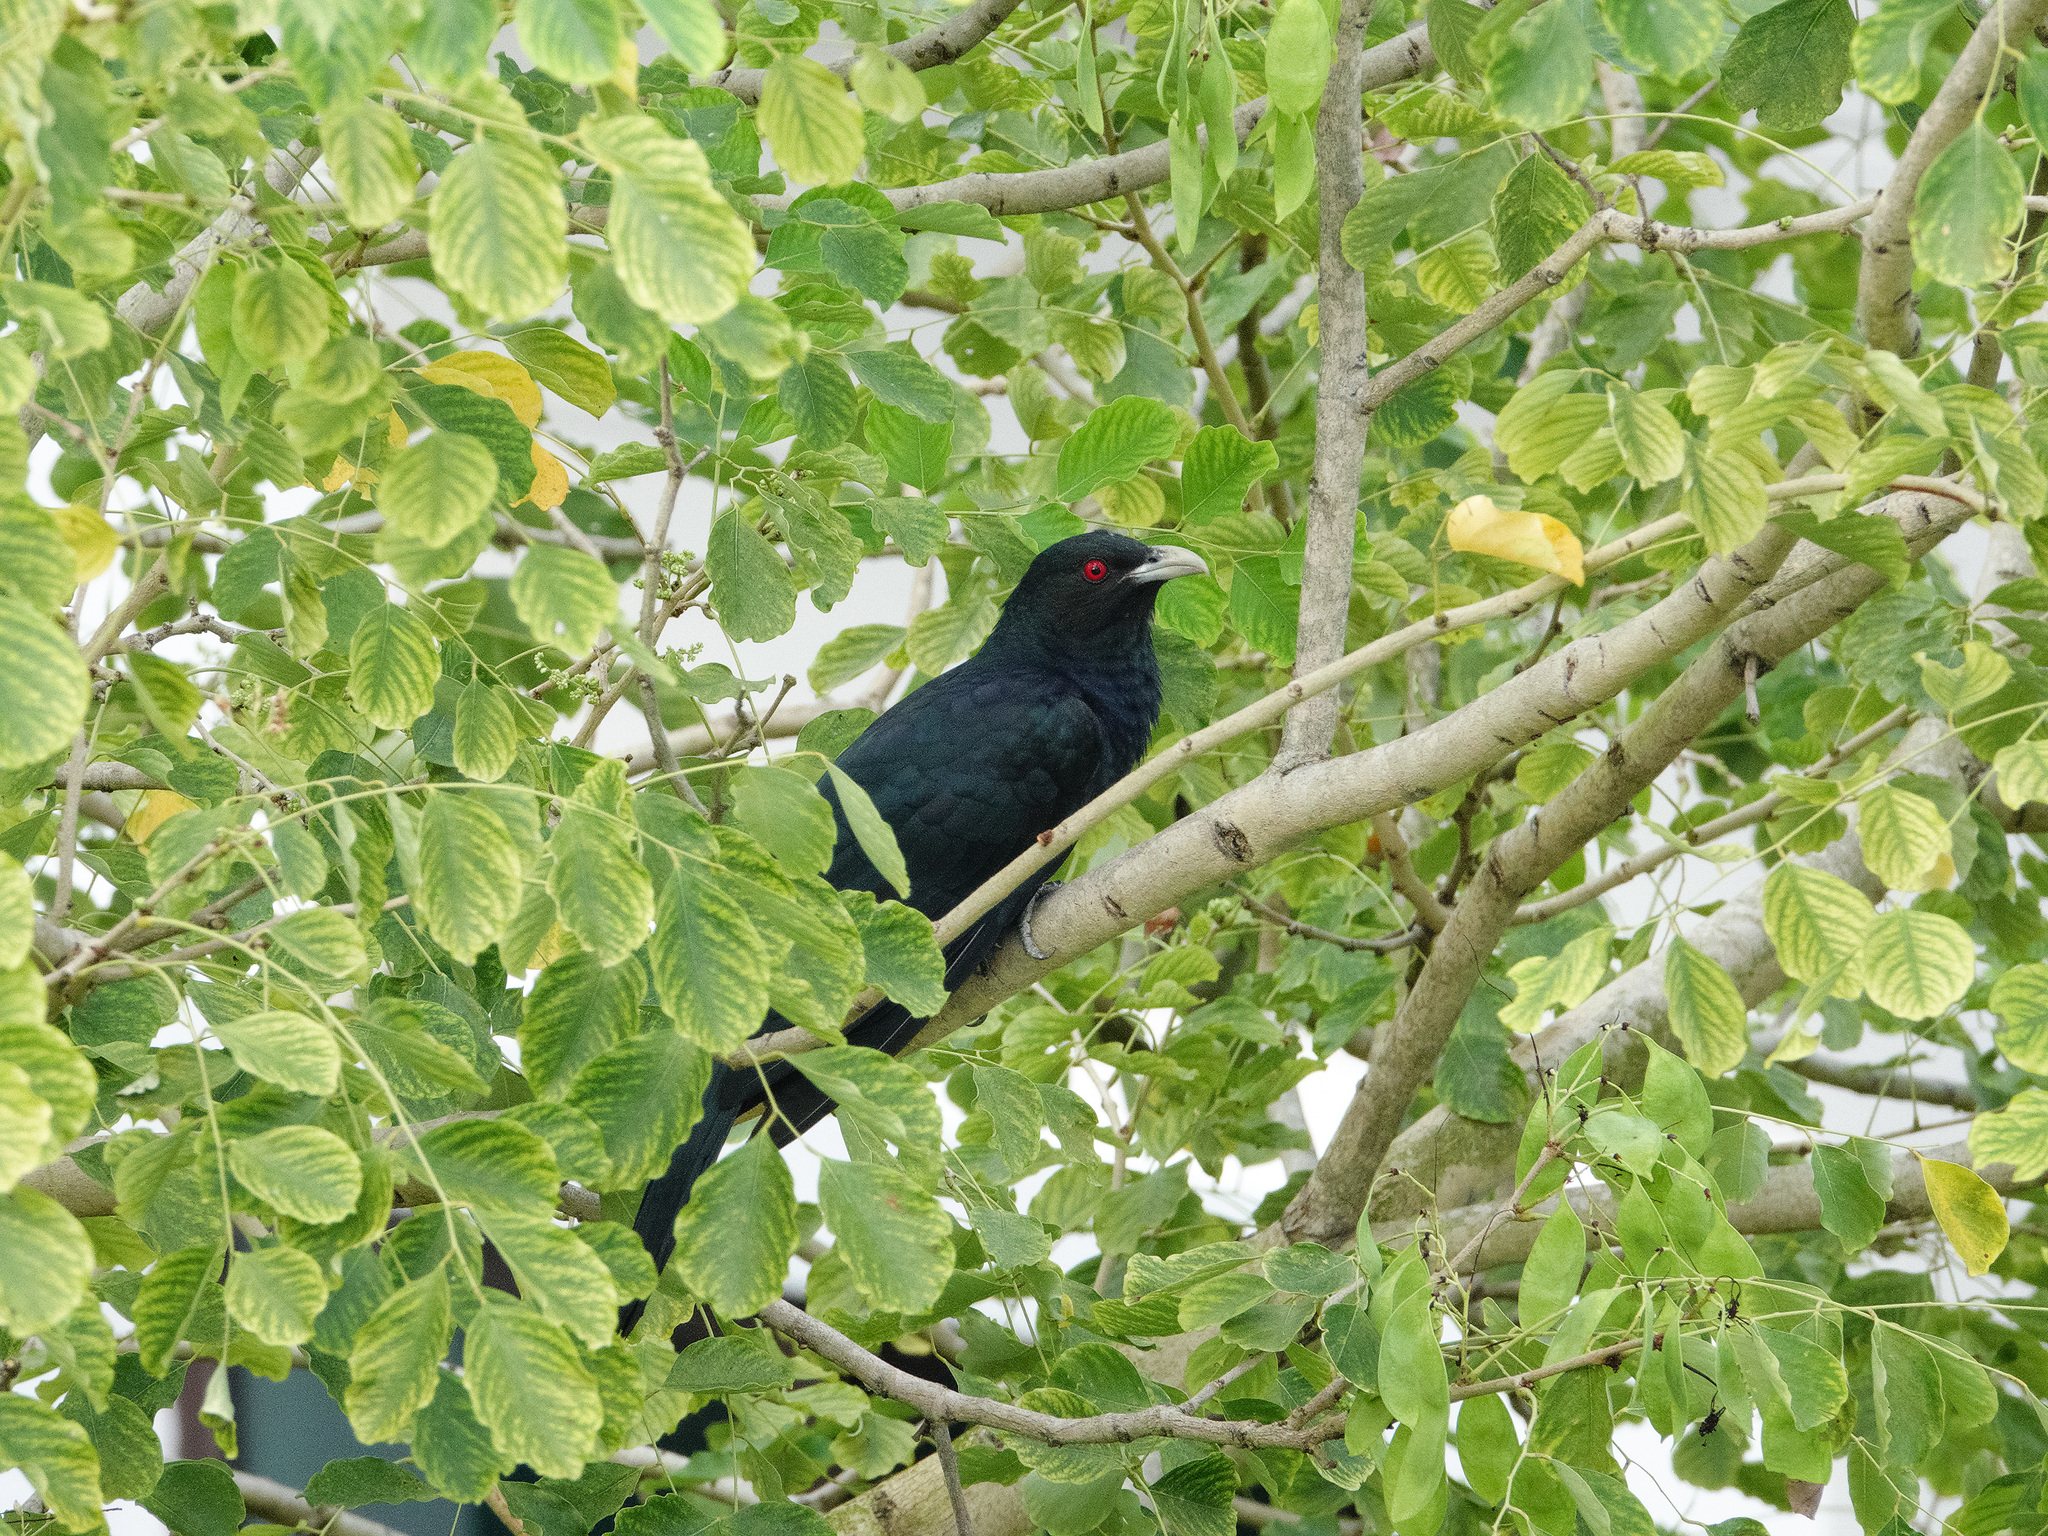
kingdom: Animalia
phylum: Chordata
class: Aves
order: Cuculiformes
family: Cuculidae
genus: Eudynamys
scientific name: Eudynamys scolopaceus
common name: Asian koel
